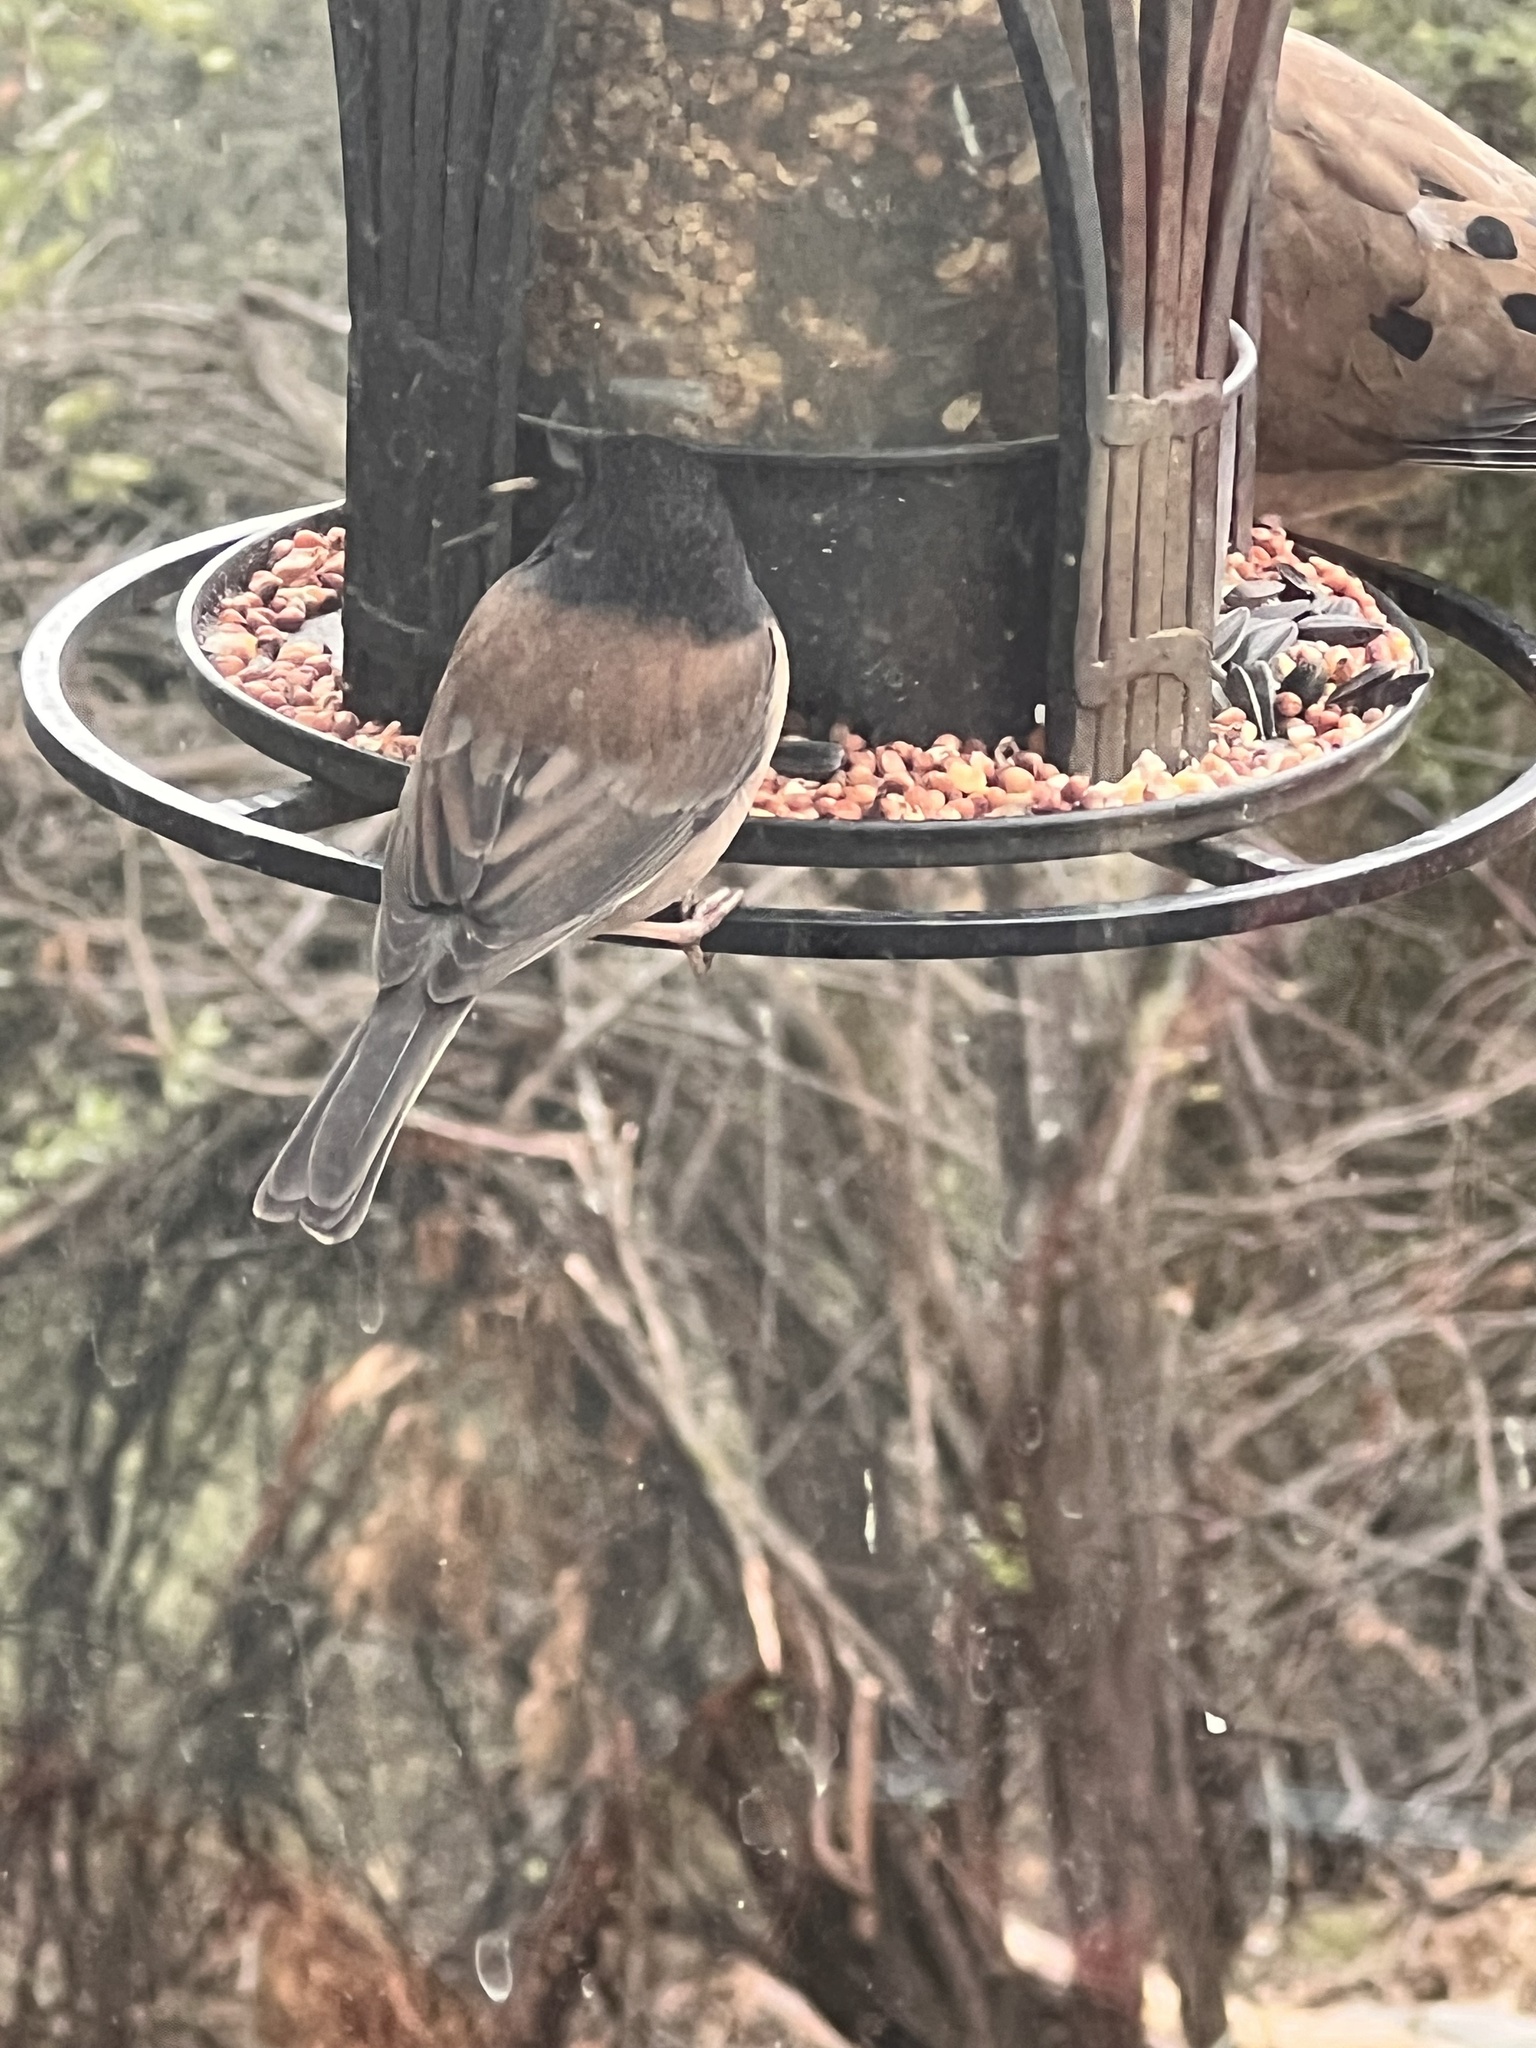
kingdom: Animalia
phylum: Chordata
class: Aves
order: Passeriformes
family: Passerellidae
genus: Junco
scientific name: Junco hyemalis
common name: Dark-eyed junco
